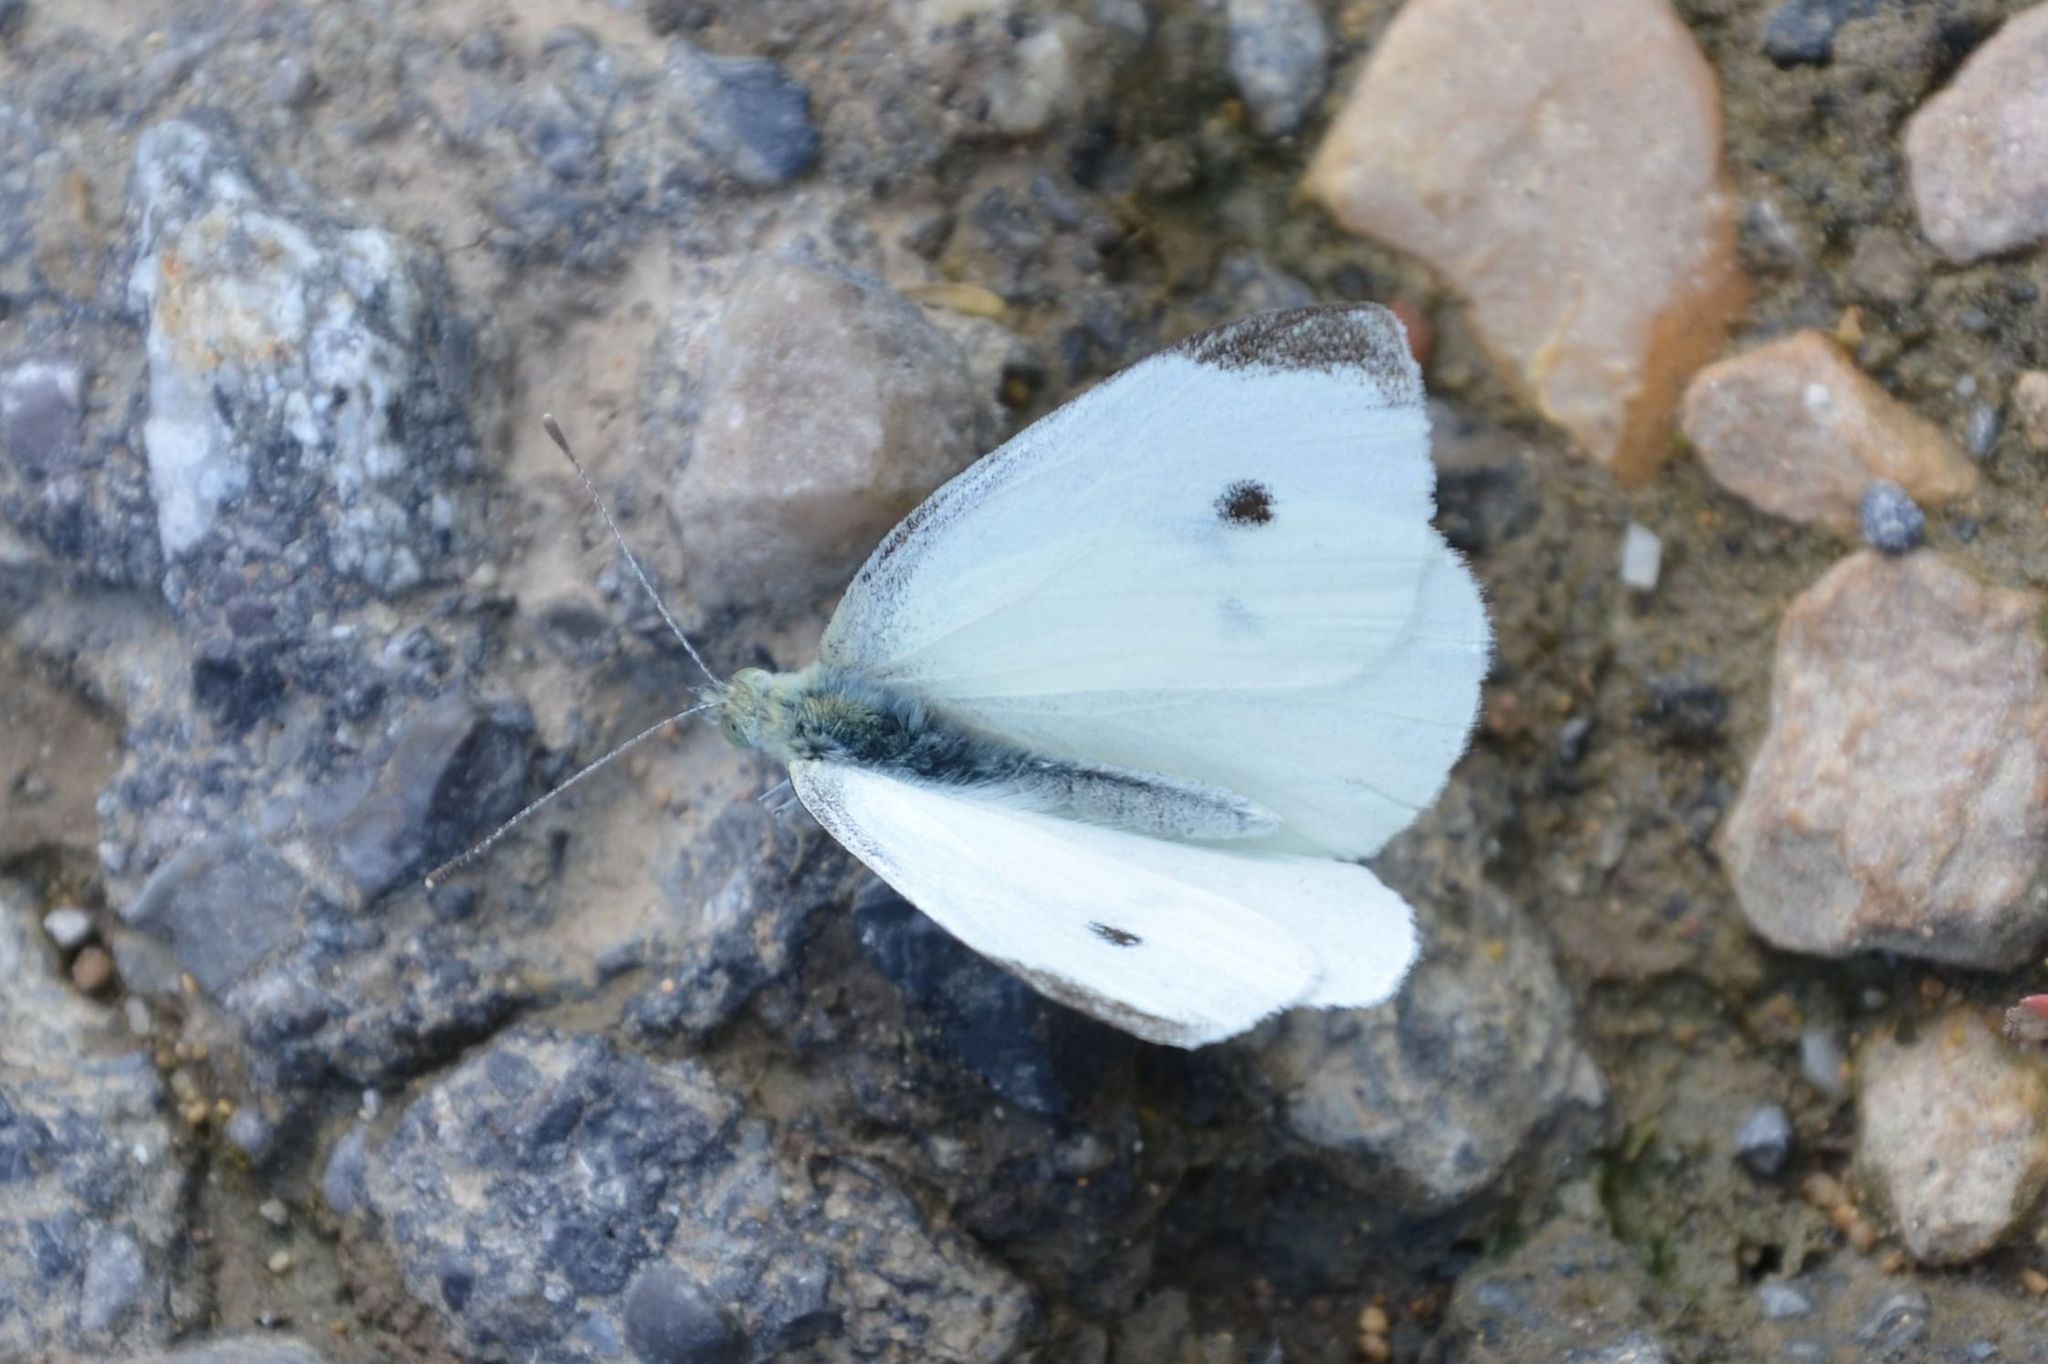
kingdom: Animalia
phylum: Arthropoda
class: Insecta
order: Lepidoptera
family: Pieridae
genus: Pieris
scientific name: Pieris rapae
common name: Small white
